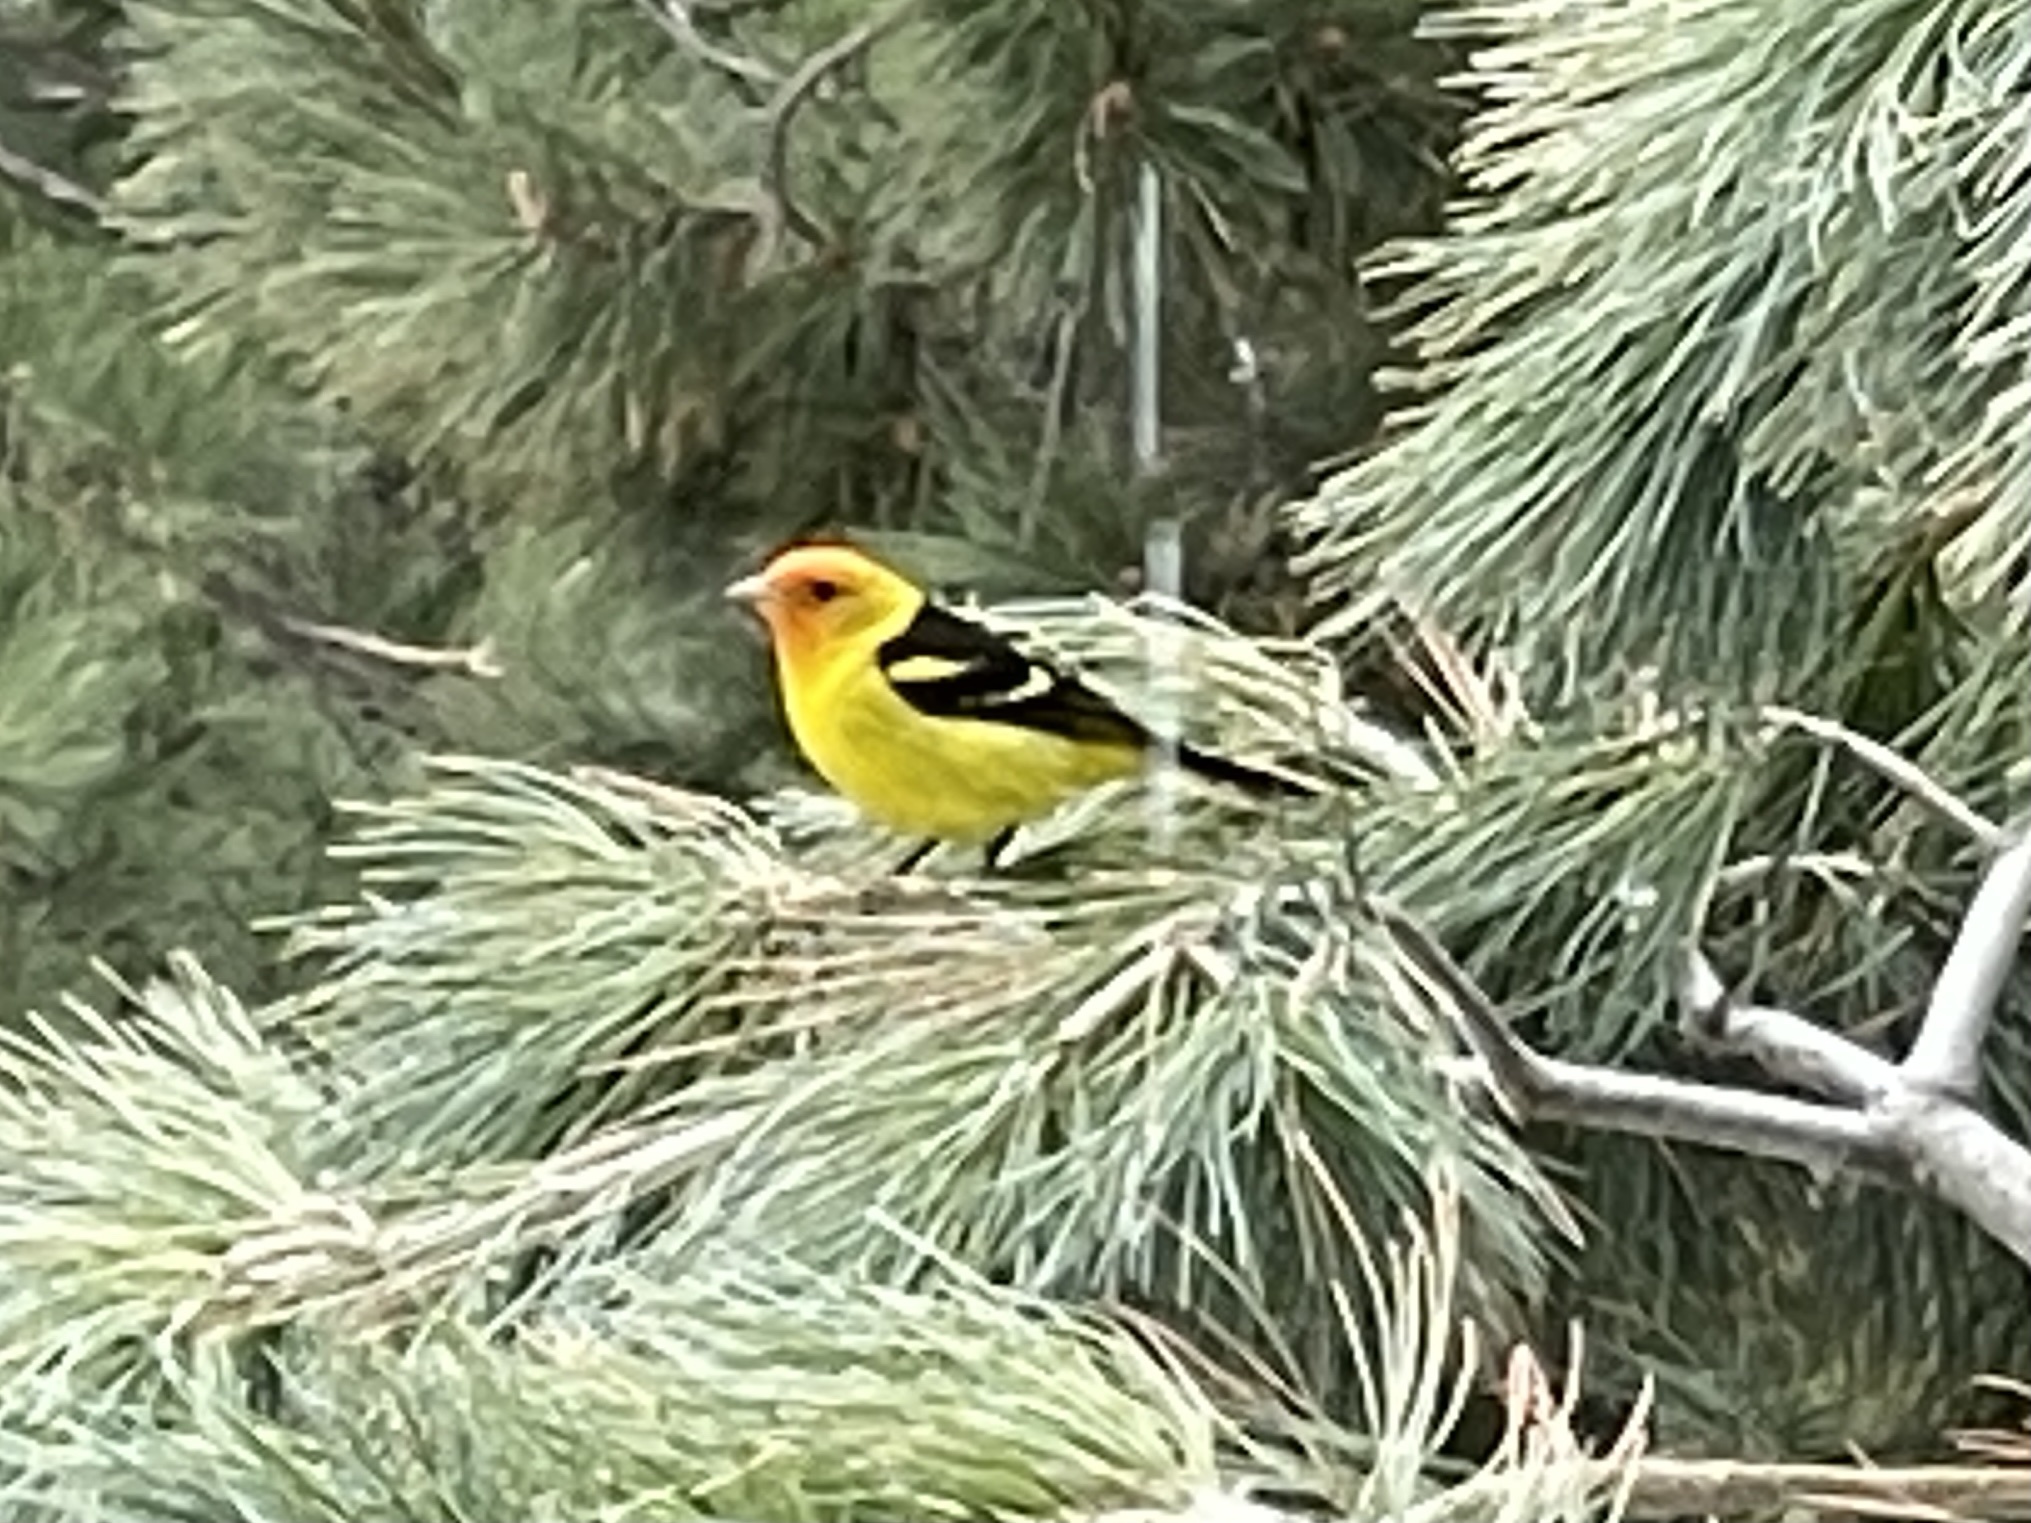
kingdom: Animalia
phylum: Chordata
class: Aves
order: Passeriformes
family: Cardinalidae
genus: Piranga
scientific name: Piranga ludoviciana
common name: Western tanager
